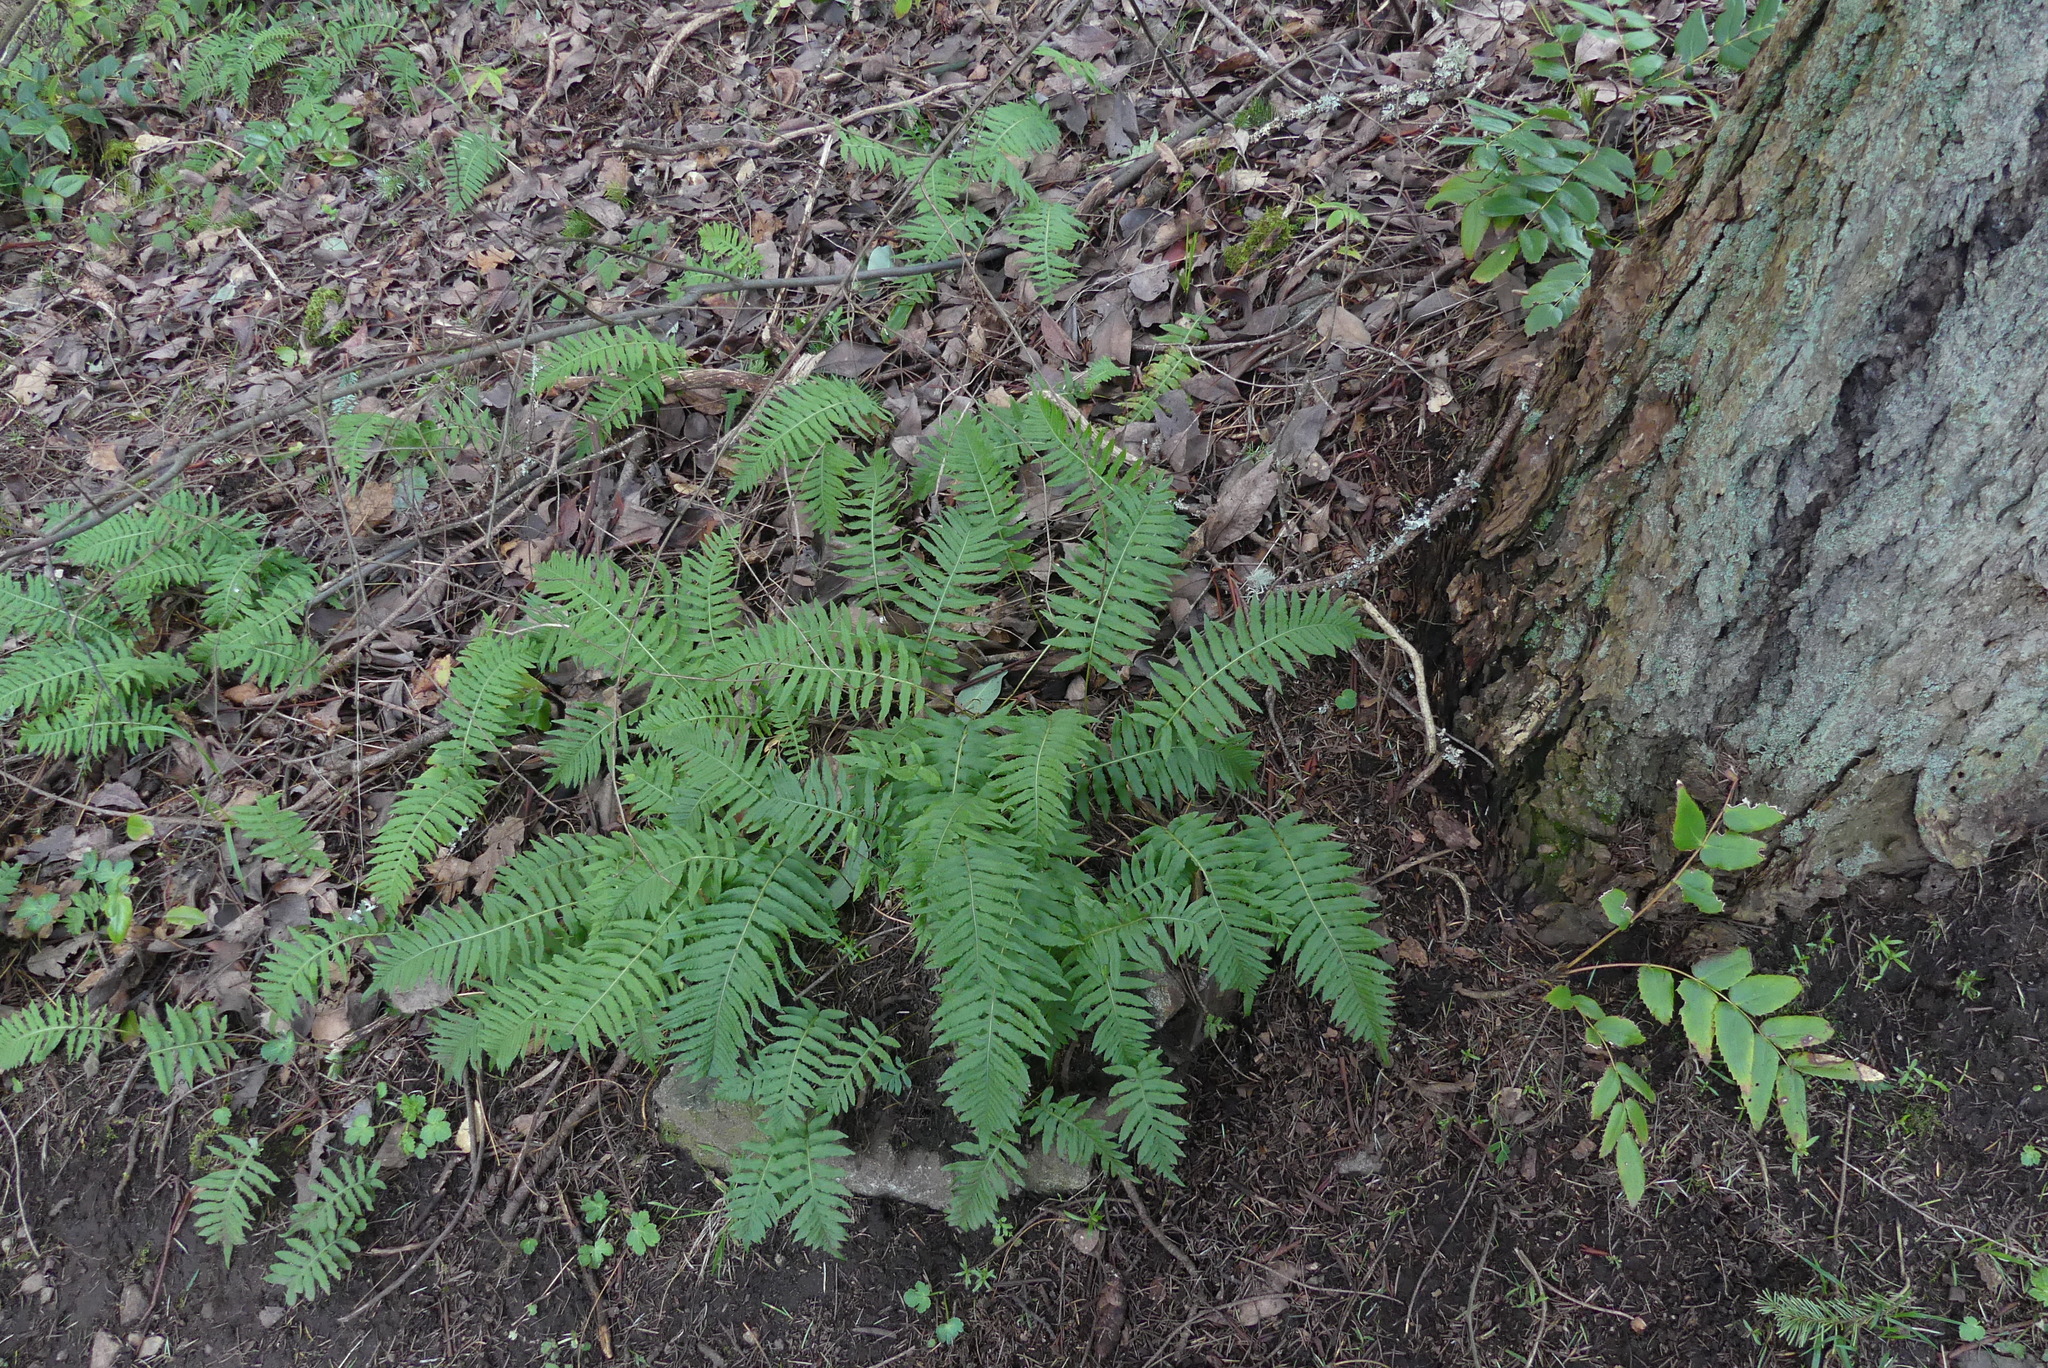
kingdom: Plantae
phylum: Tracheophyta
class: Polypodiopsida
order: Polypodiales
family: Polypodiaceae
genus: Polypodium
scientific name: Polypodium glycyrrhiza
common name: Licorice fern
